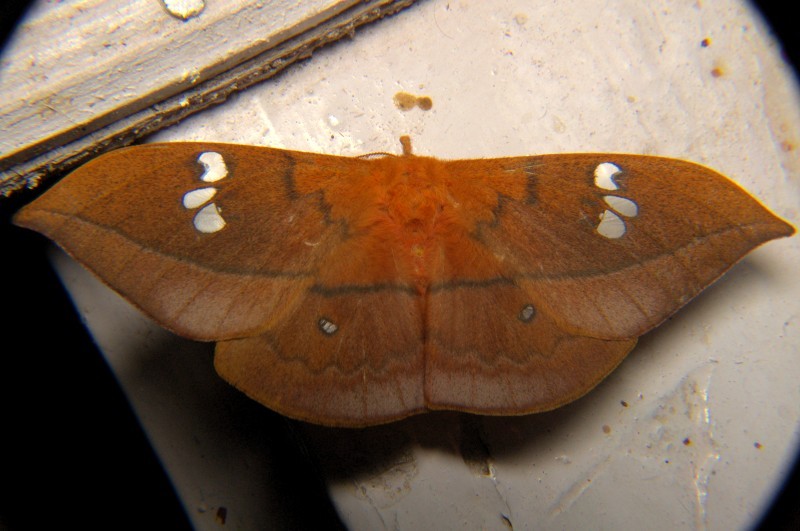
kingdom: Animalia
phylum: Arthropoda
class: Insecta
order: Lepidoptera
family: Saturniidae
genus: Cricula
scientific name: Cricula trifenestrata
